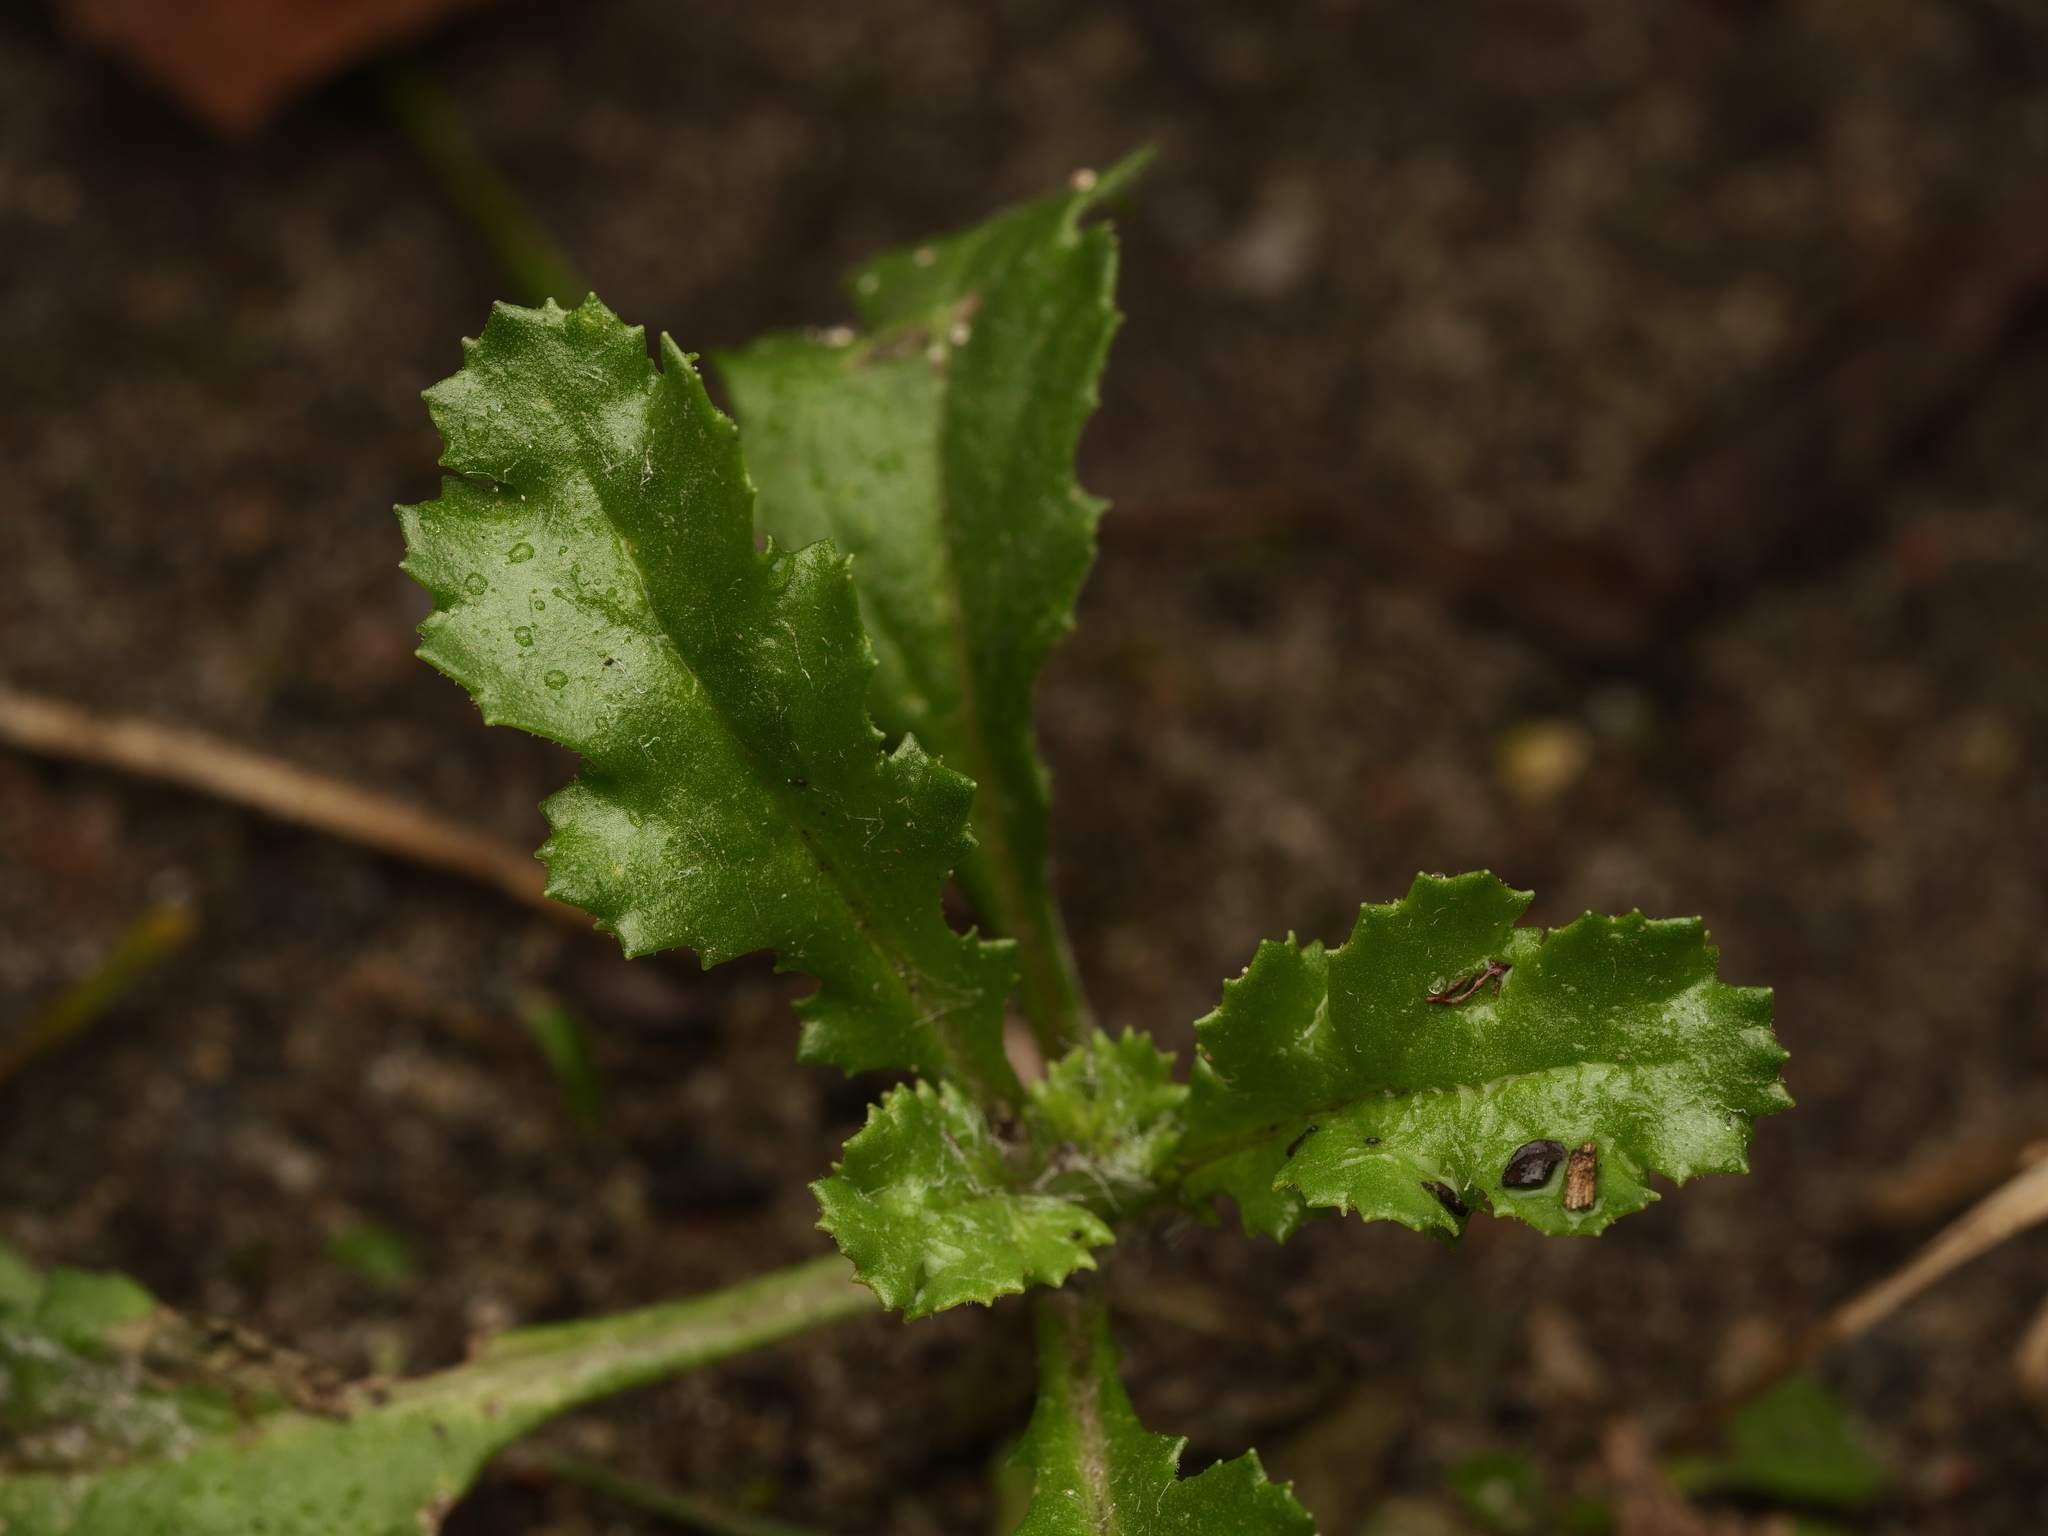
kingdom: Plantae
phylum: Tracheophyta
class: Magnoliopsida
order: Asterales
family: Asteraceae
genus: Senecio
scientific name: Senecio vulgaris
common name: Old-man-in-the-spring
